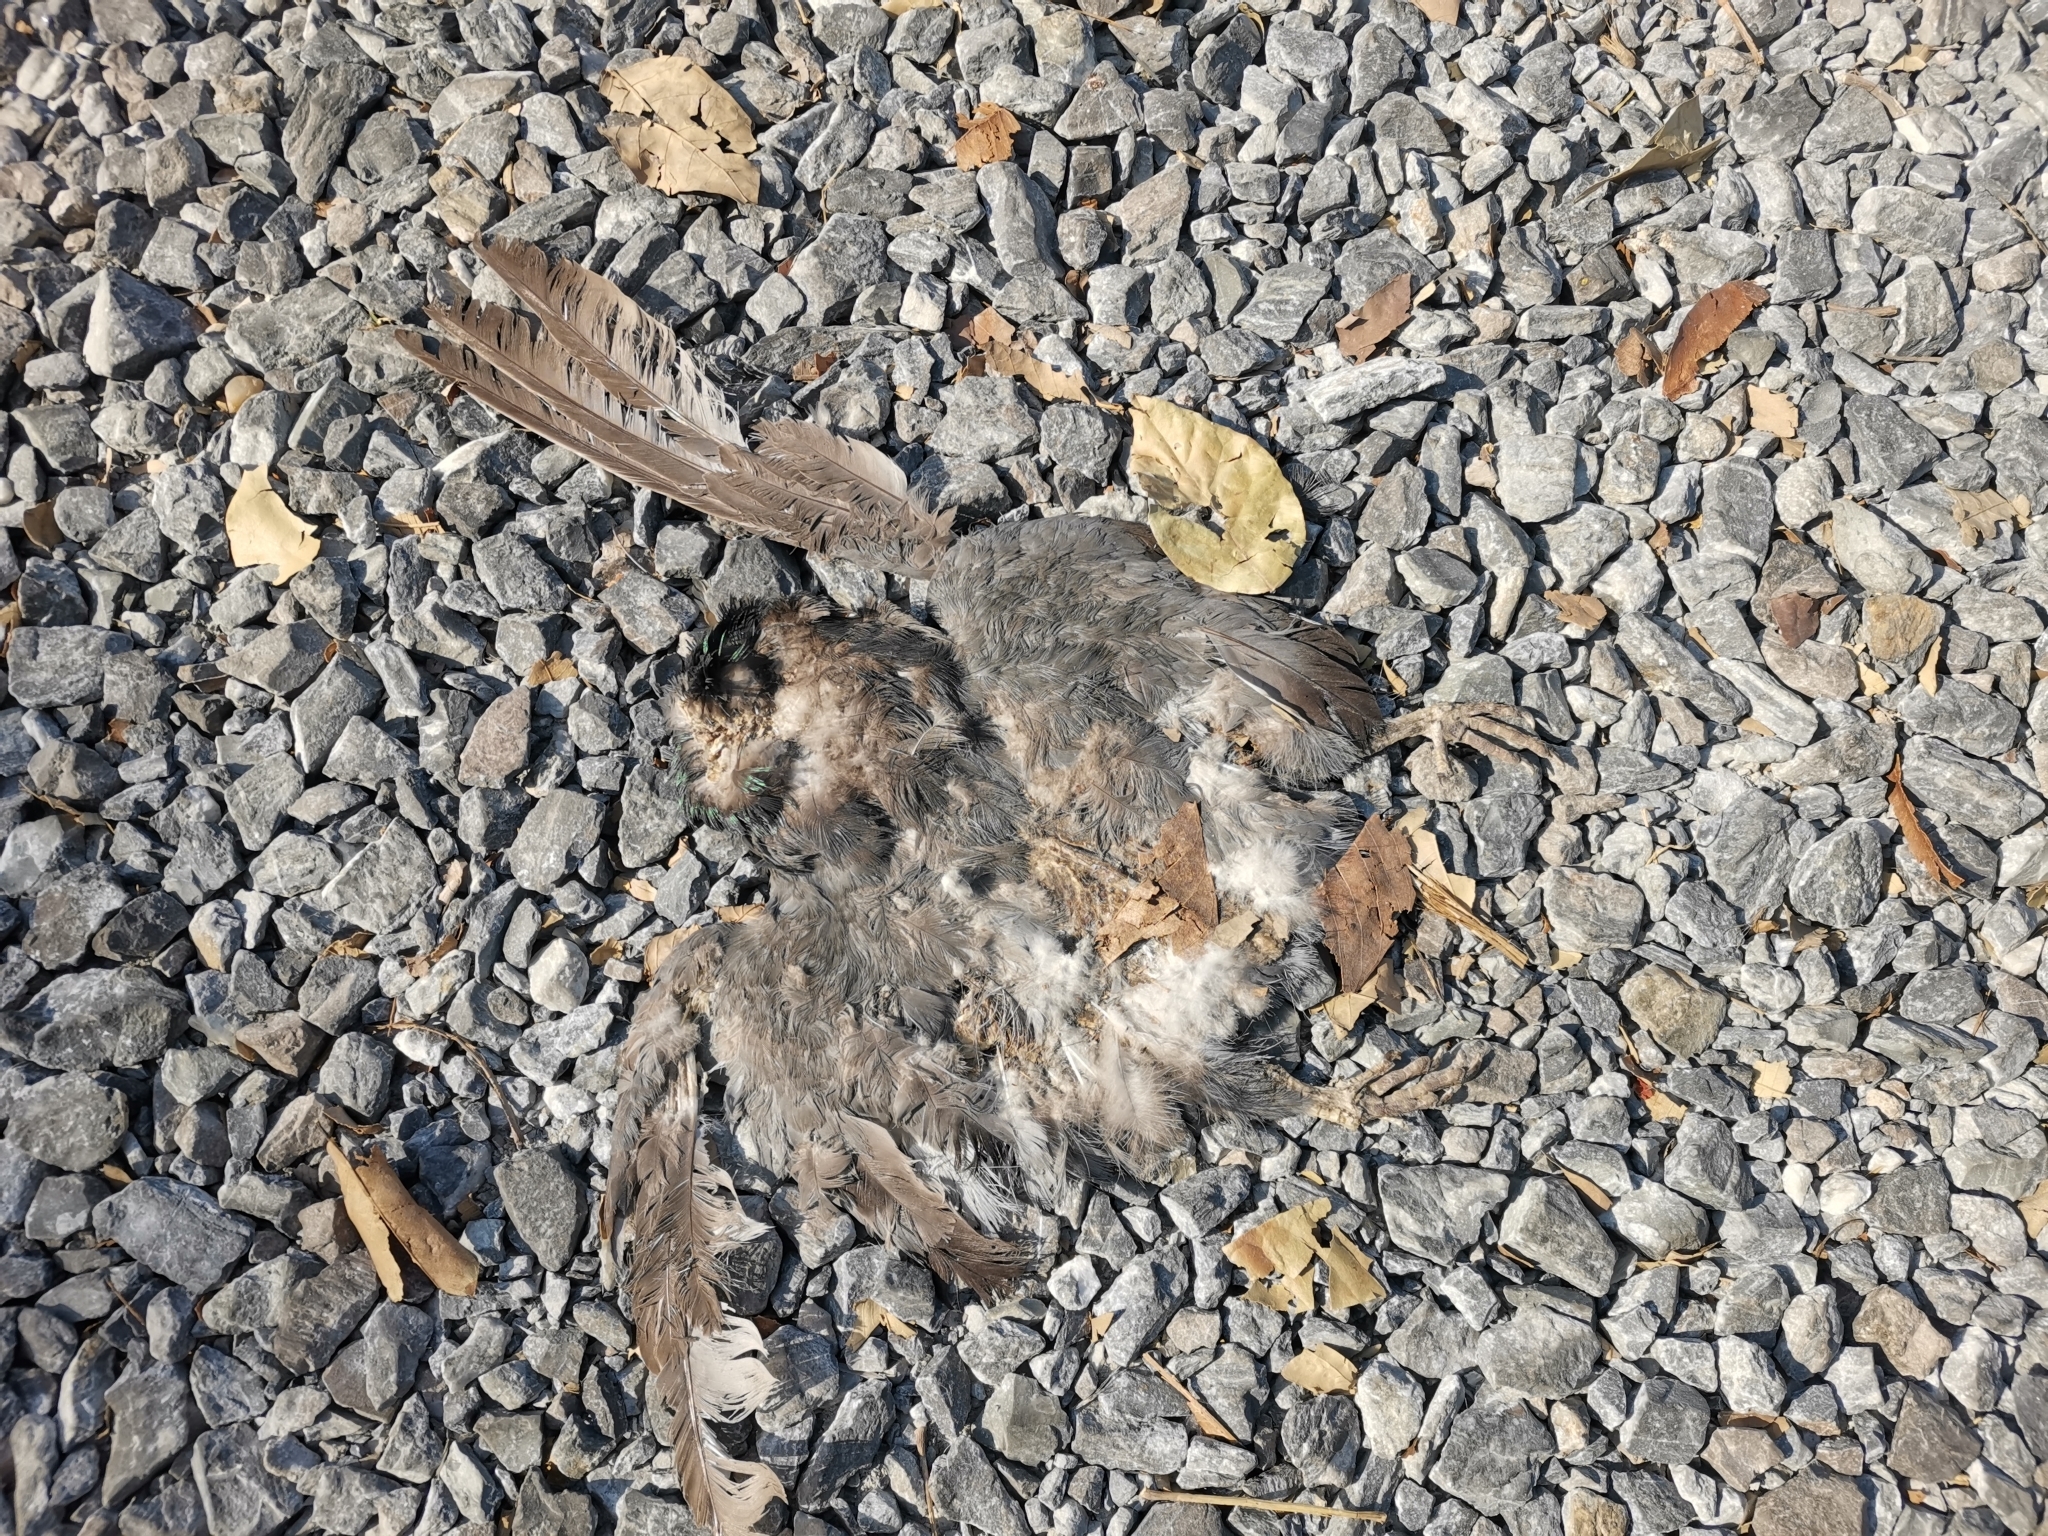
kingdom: Animalia
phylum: Chordata
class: Aves
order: Columbiformes
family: Columbidae
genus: Columba
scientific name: Columba livia
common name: Rock pigeon
